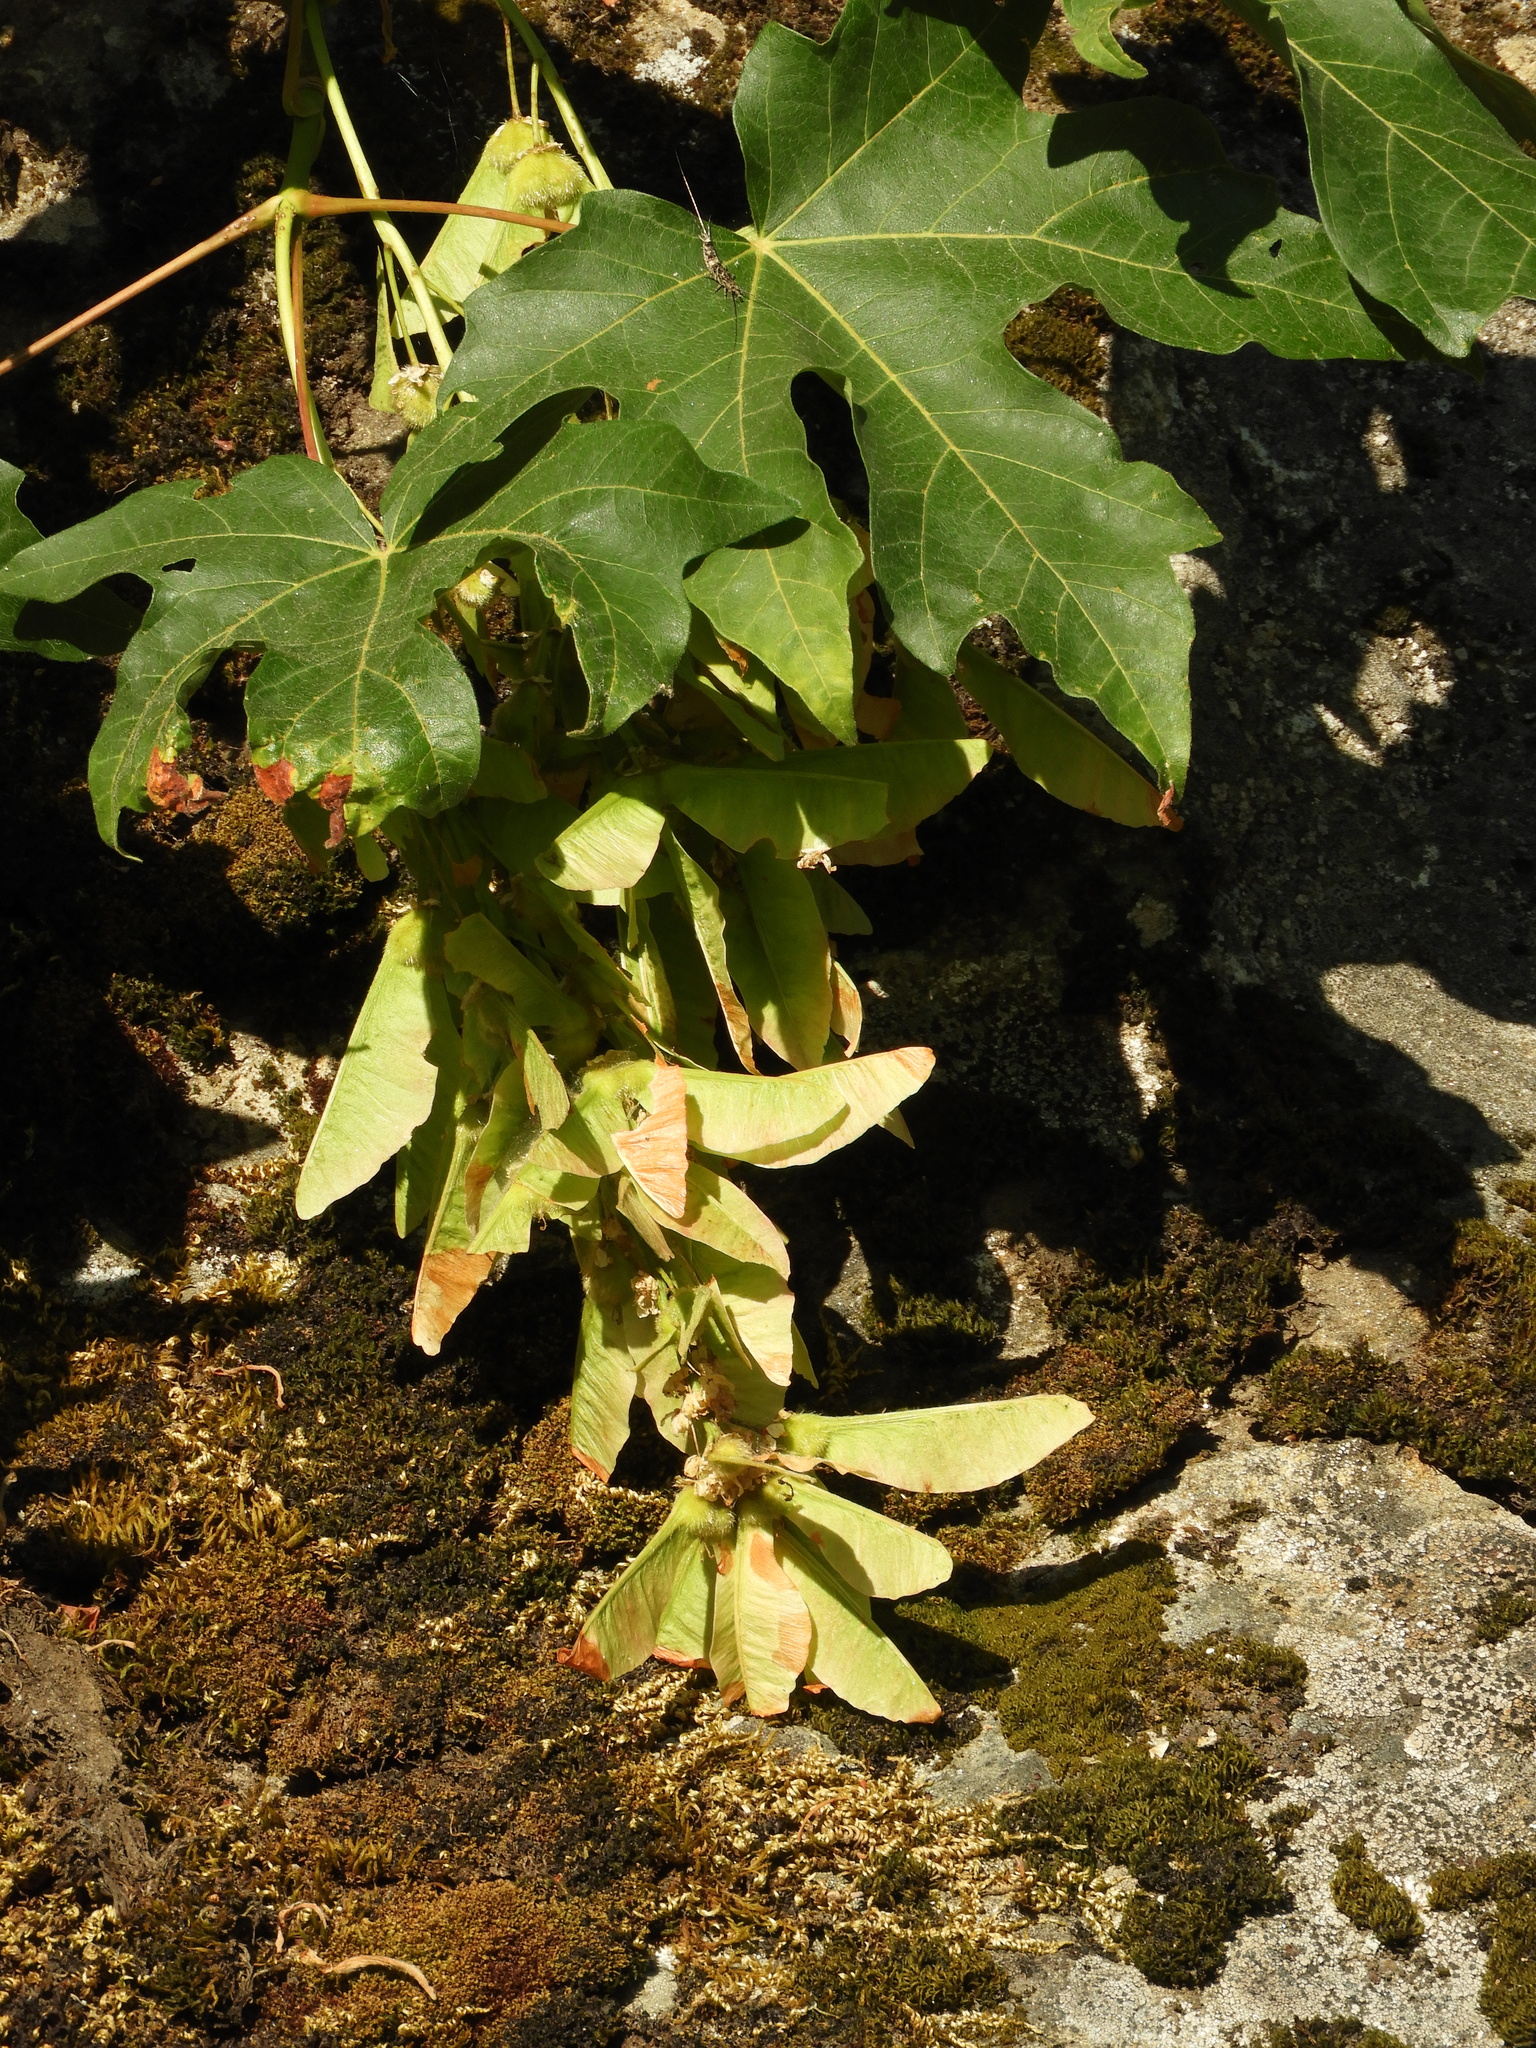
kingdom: Plantae
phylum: Tracheophyta
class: Magnoliopsida
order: Sapindales
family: Sapindaceae
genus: Acer
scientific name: Acer macrophyllum
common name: Oregon maple
